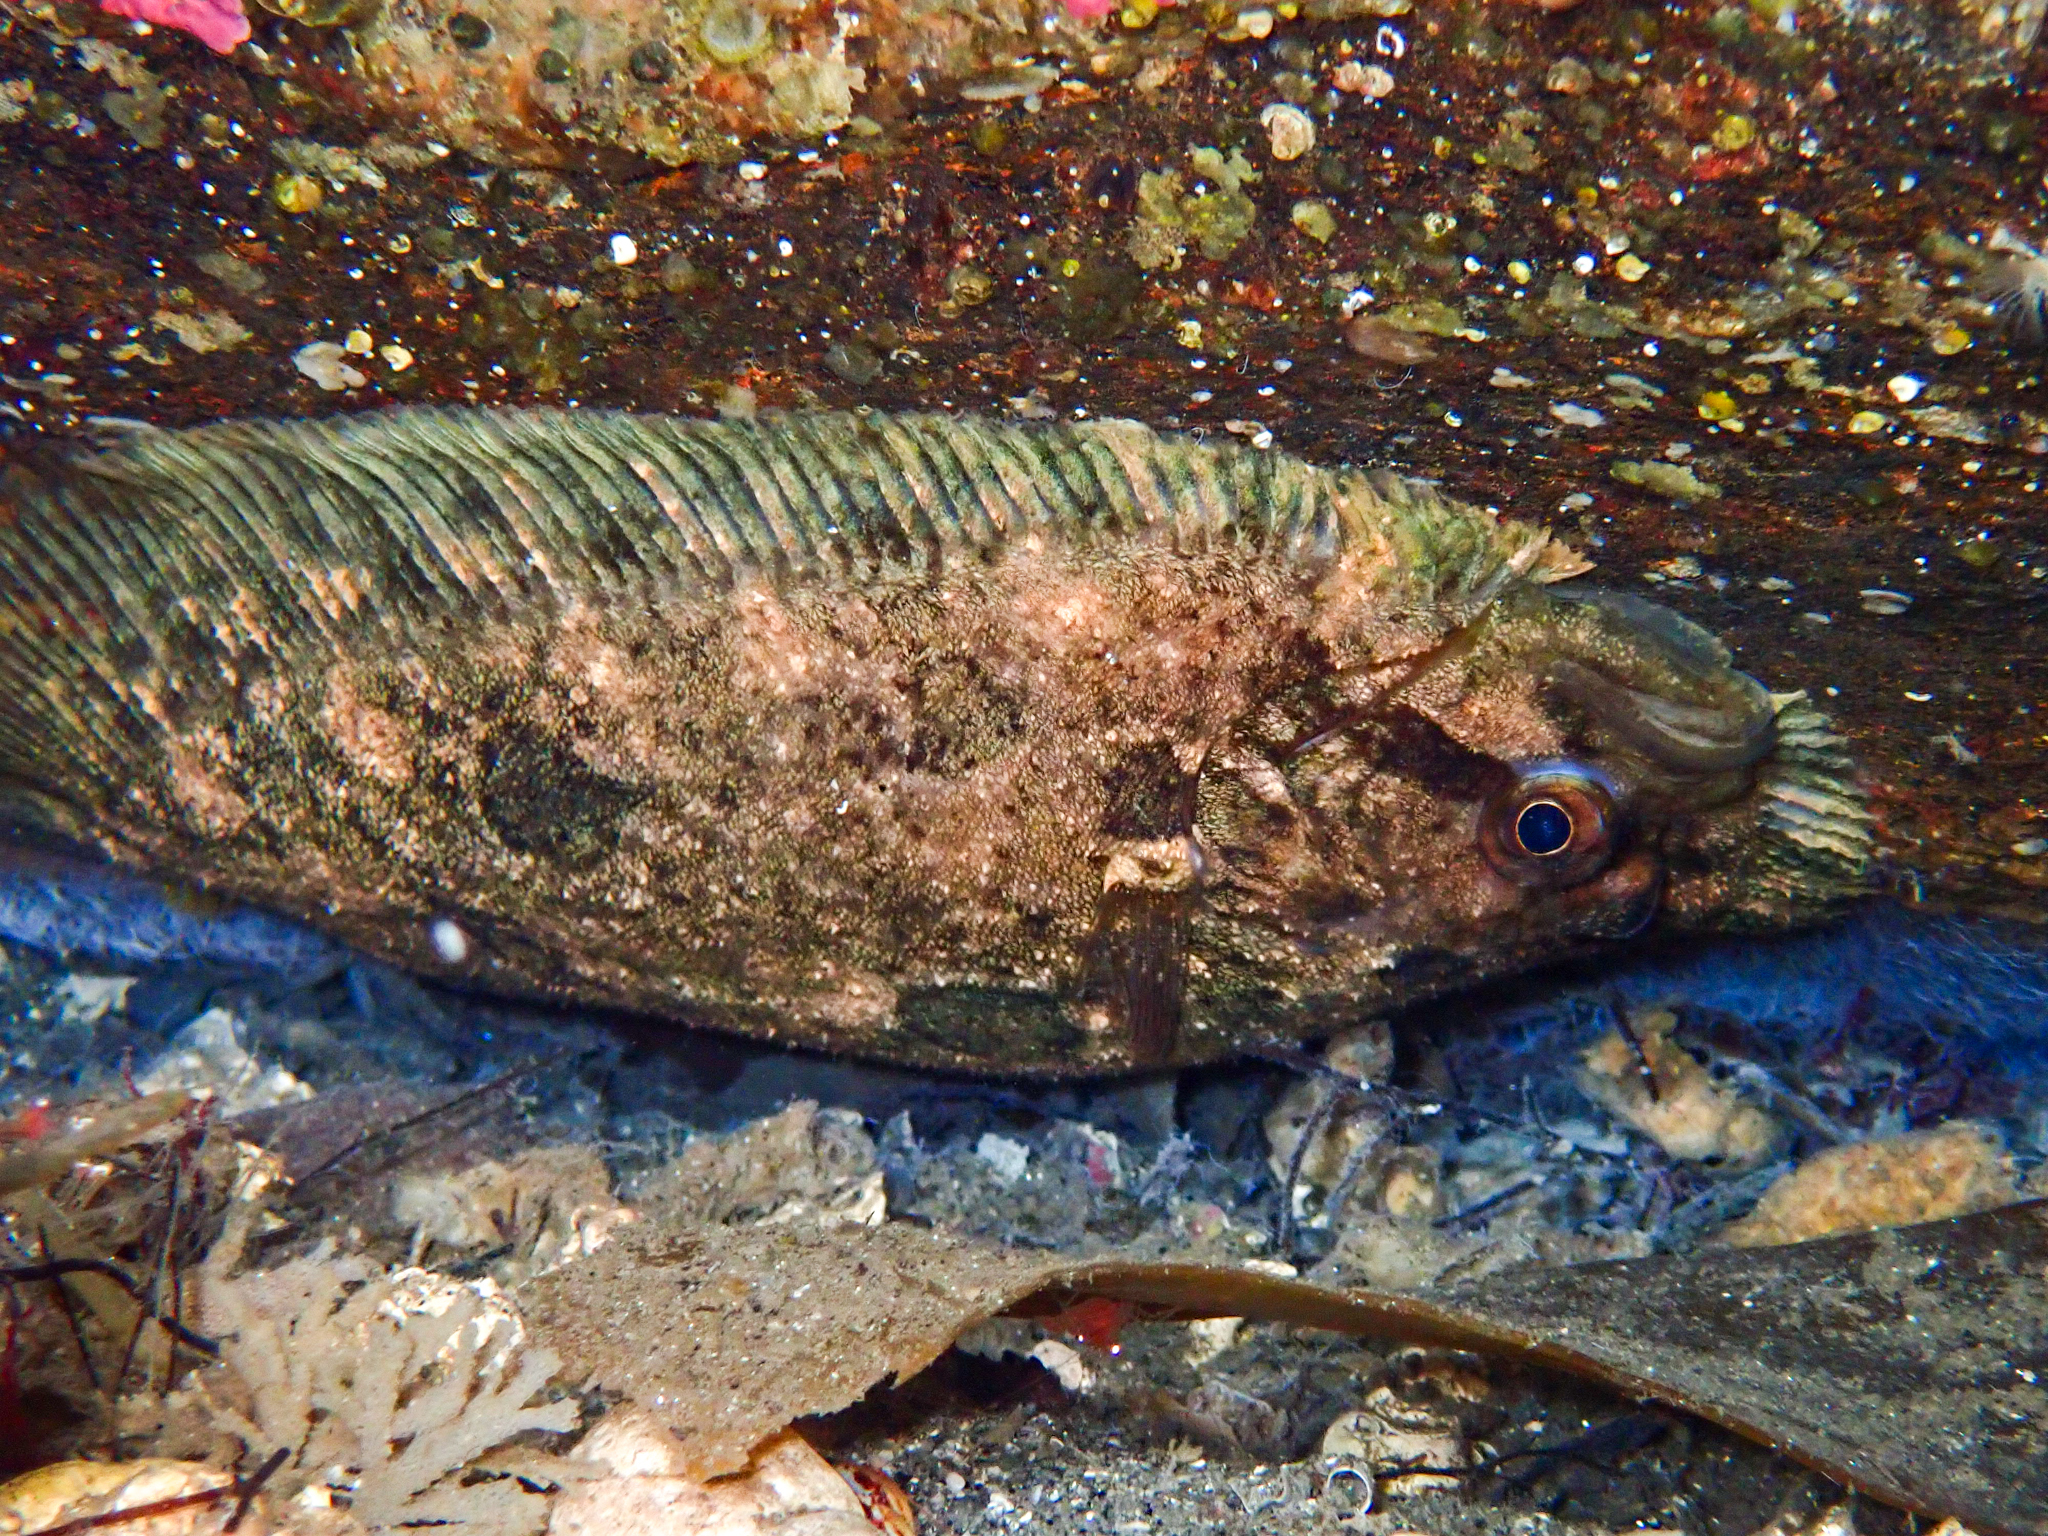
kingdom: Animalia
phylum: Chordata
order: Pleuronectiformes
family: Scophthalmidae
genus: Zeugopterus
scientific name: Zeugopterus punctatus
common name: Topknot
